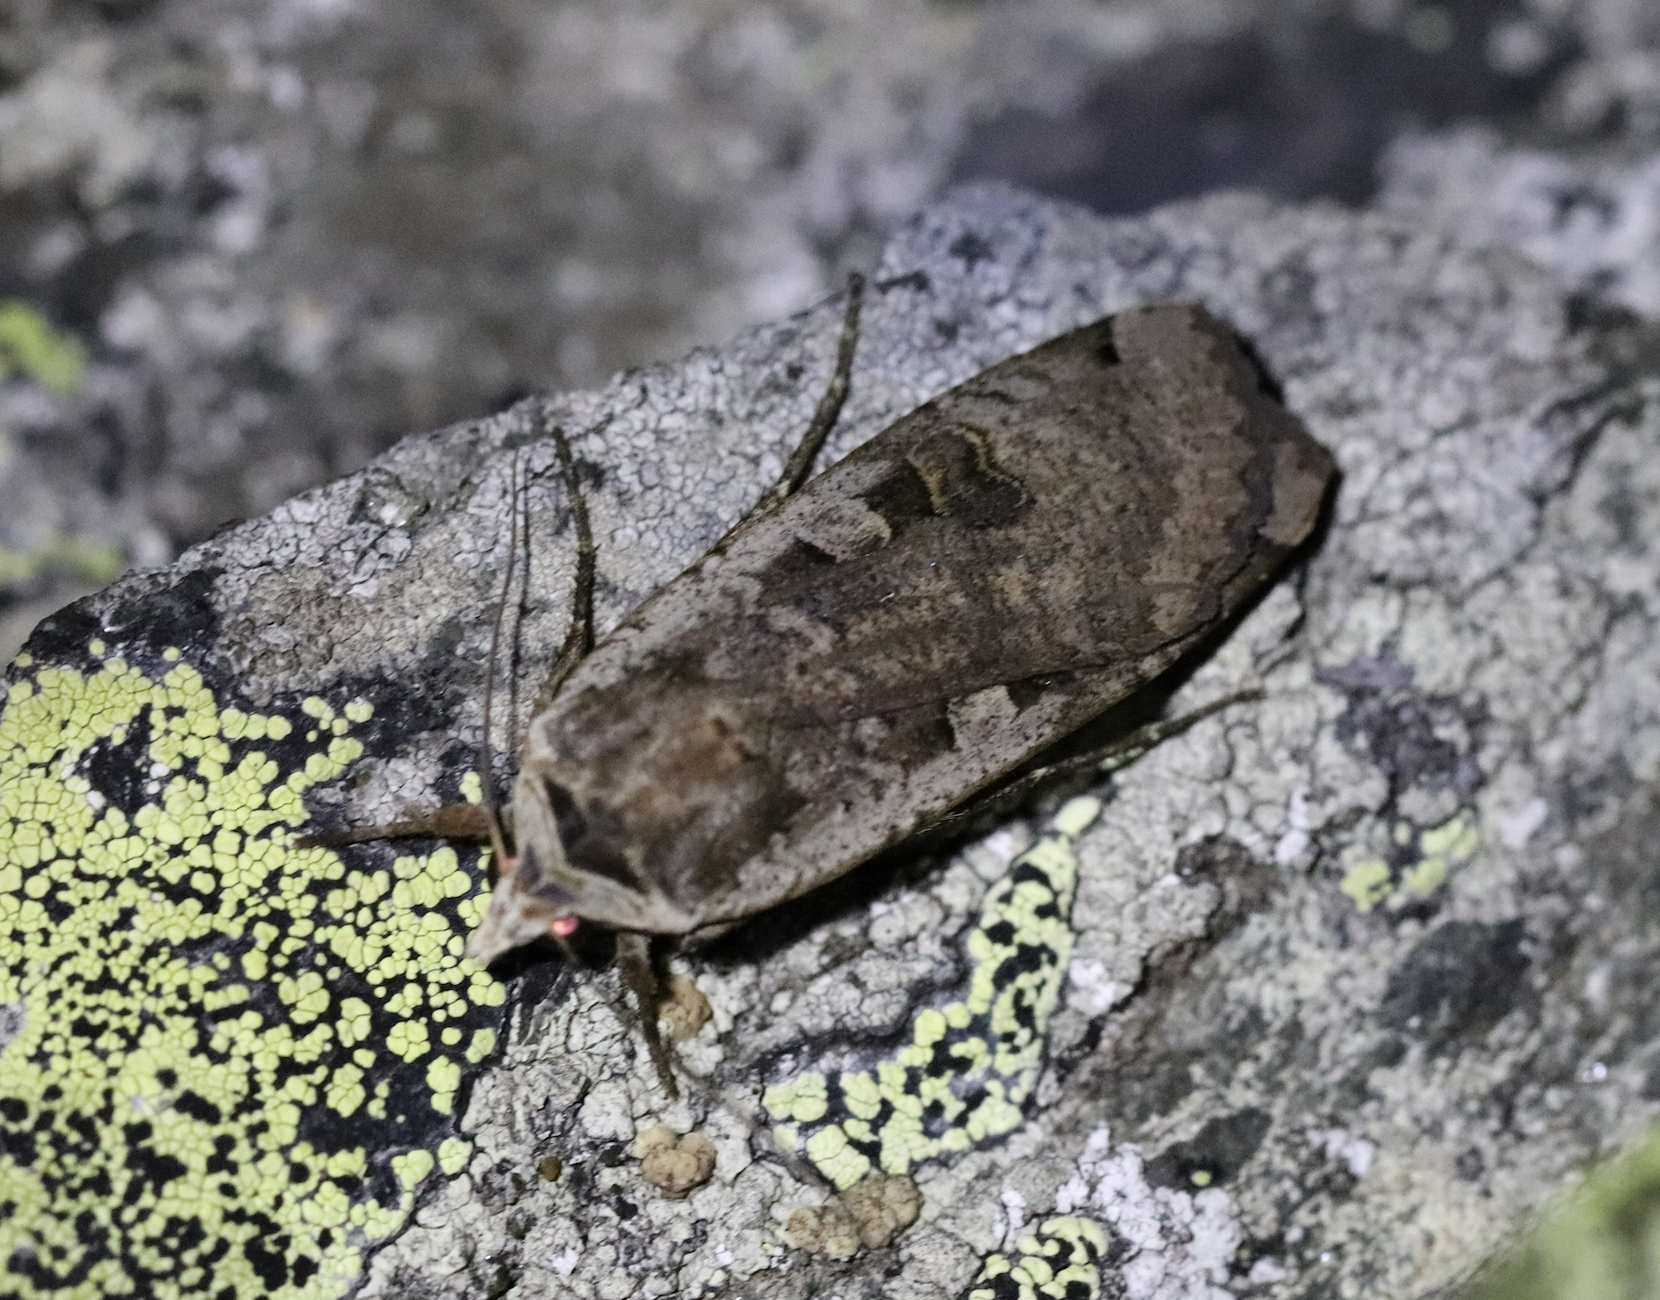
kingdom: Animalia
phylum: Arthropoda
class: Insecta
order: Lepidoptera
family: Noctuidae
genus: Noctua
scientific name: Noctua pronuba
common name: Large yellow underwing
